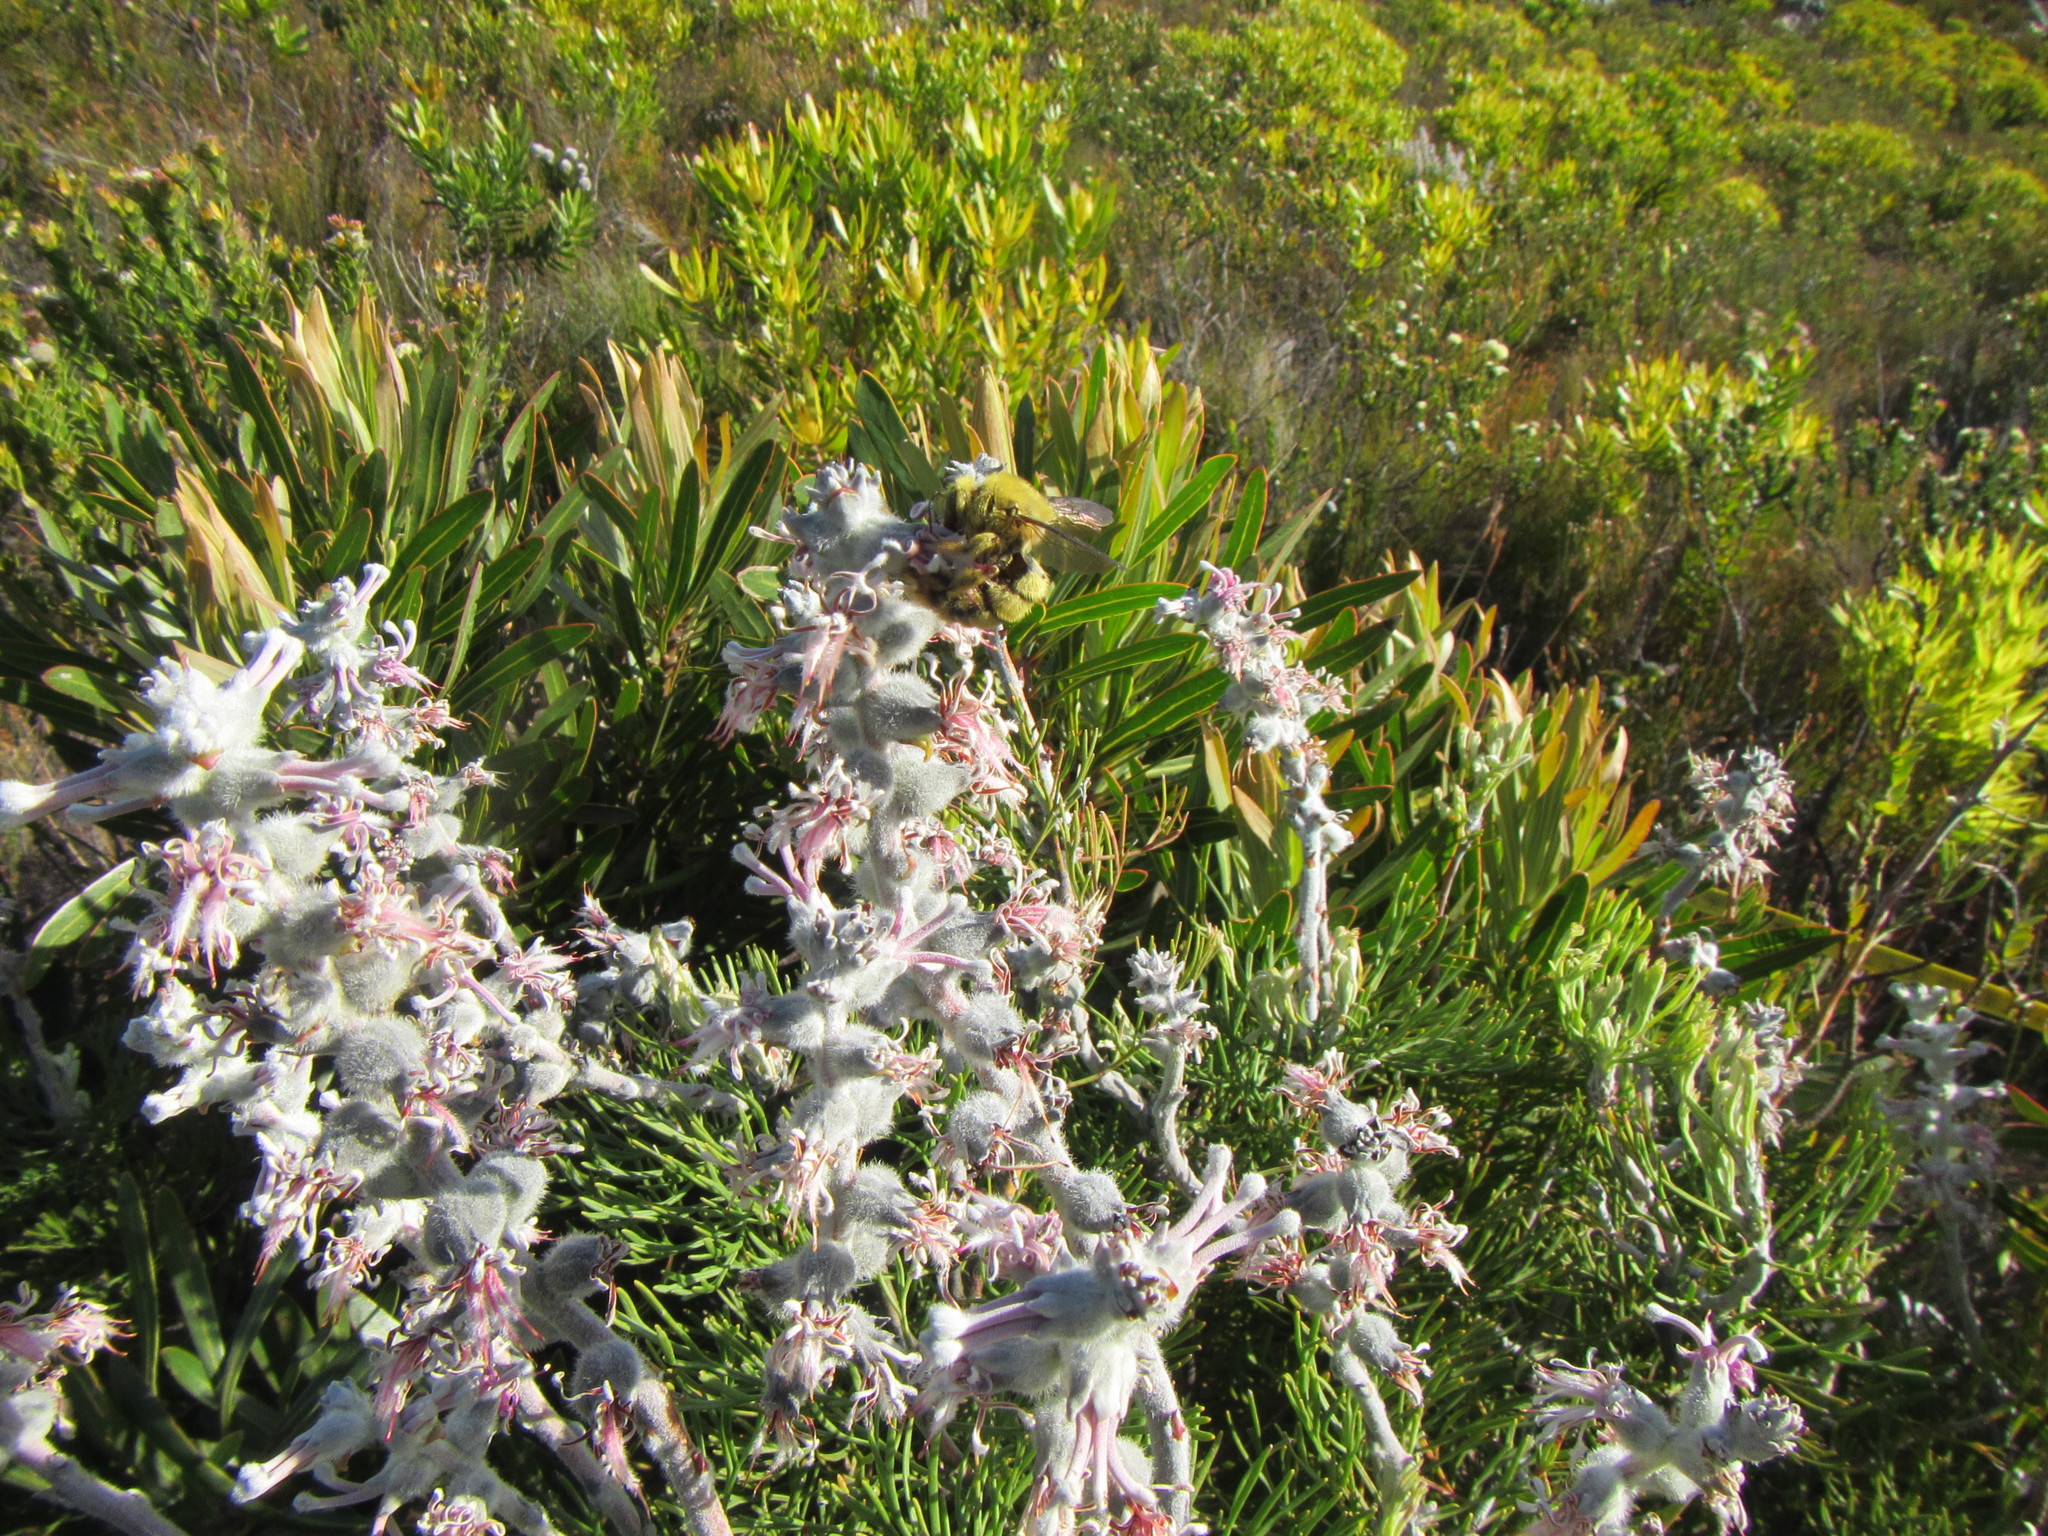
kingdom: Plantae
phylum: Tracheophyta
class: Magnoliopsida
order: Proteales
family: Proteaceae
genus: Paranomus
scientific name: Paranomus spicatus
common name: Kogelberg sceptre
